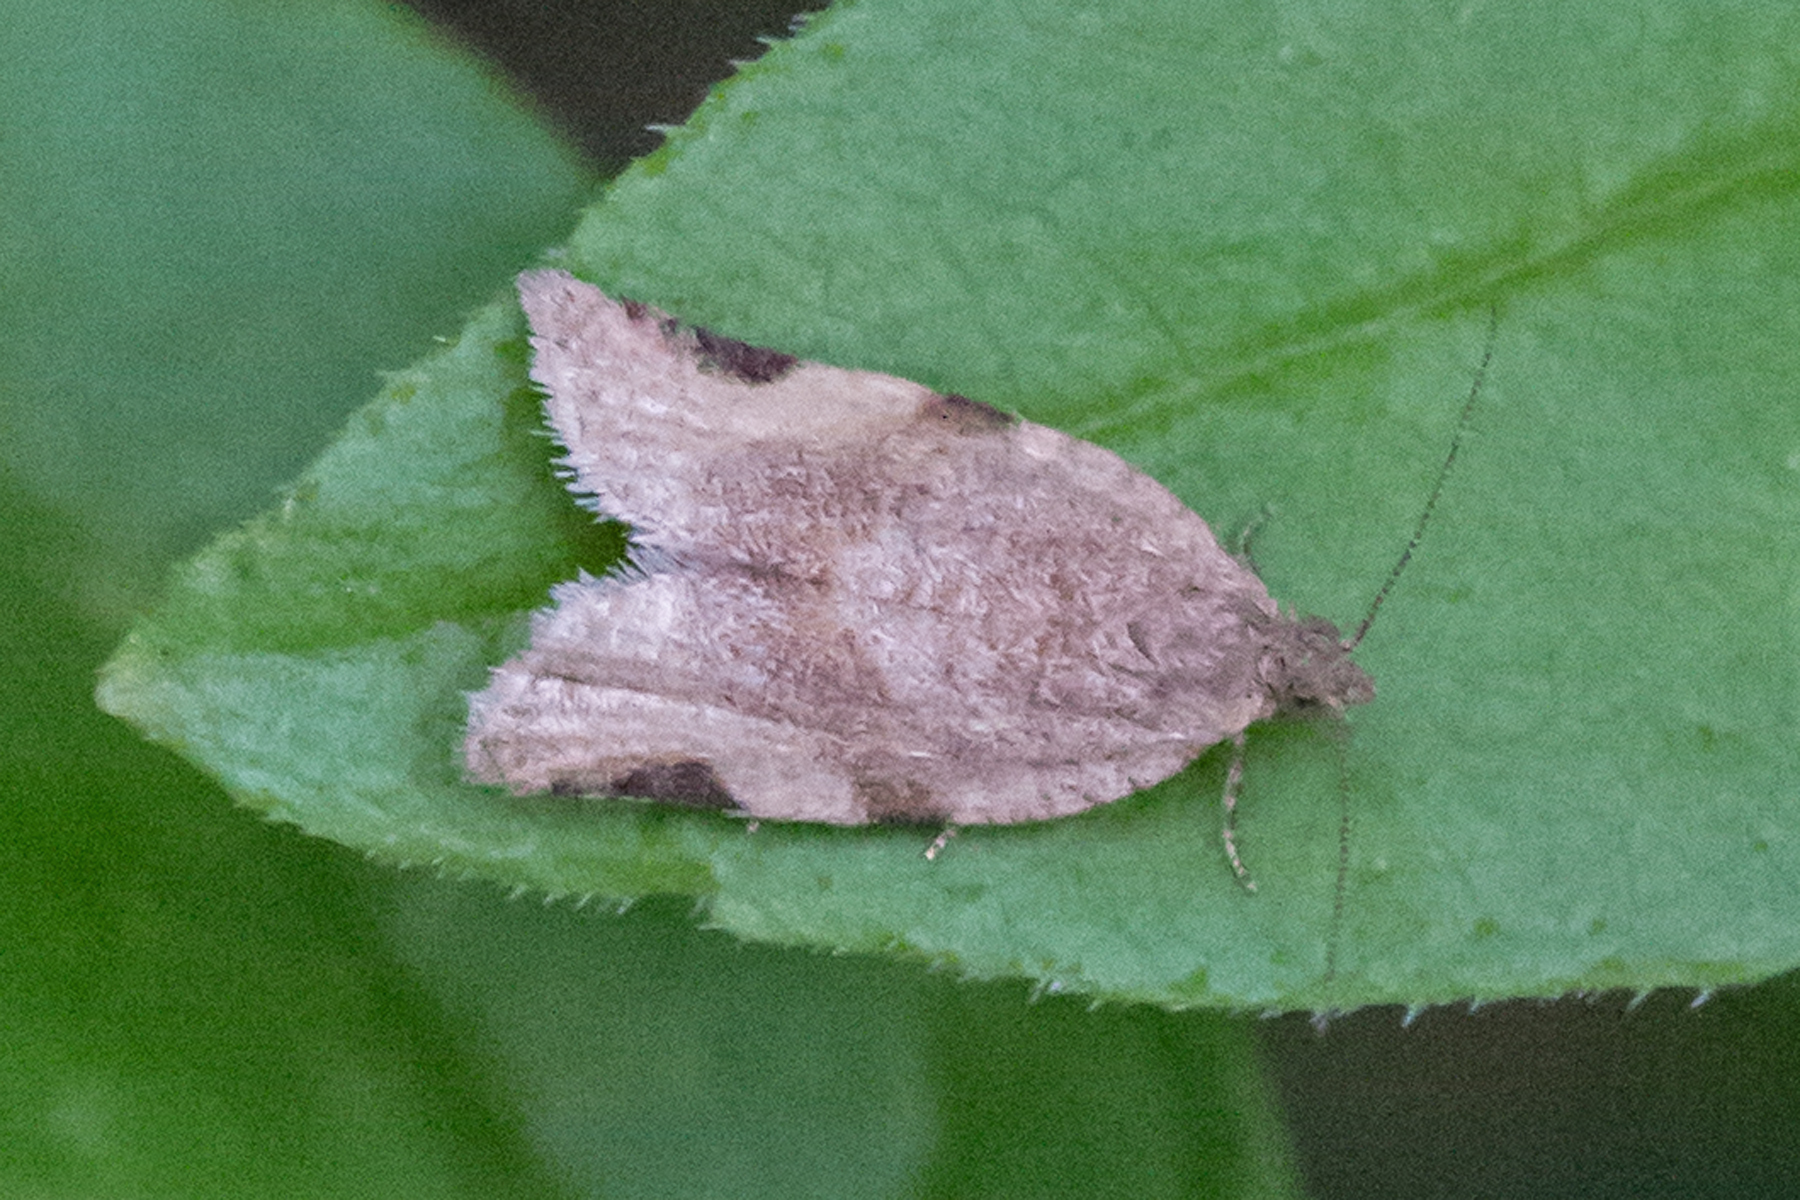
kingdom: Animalia
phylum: Arthropoda
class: Insecta
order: Lepidoptera
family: Tortricidae
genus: Clepsis
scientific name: Clepsis virescana
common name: Greenish apple moth
